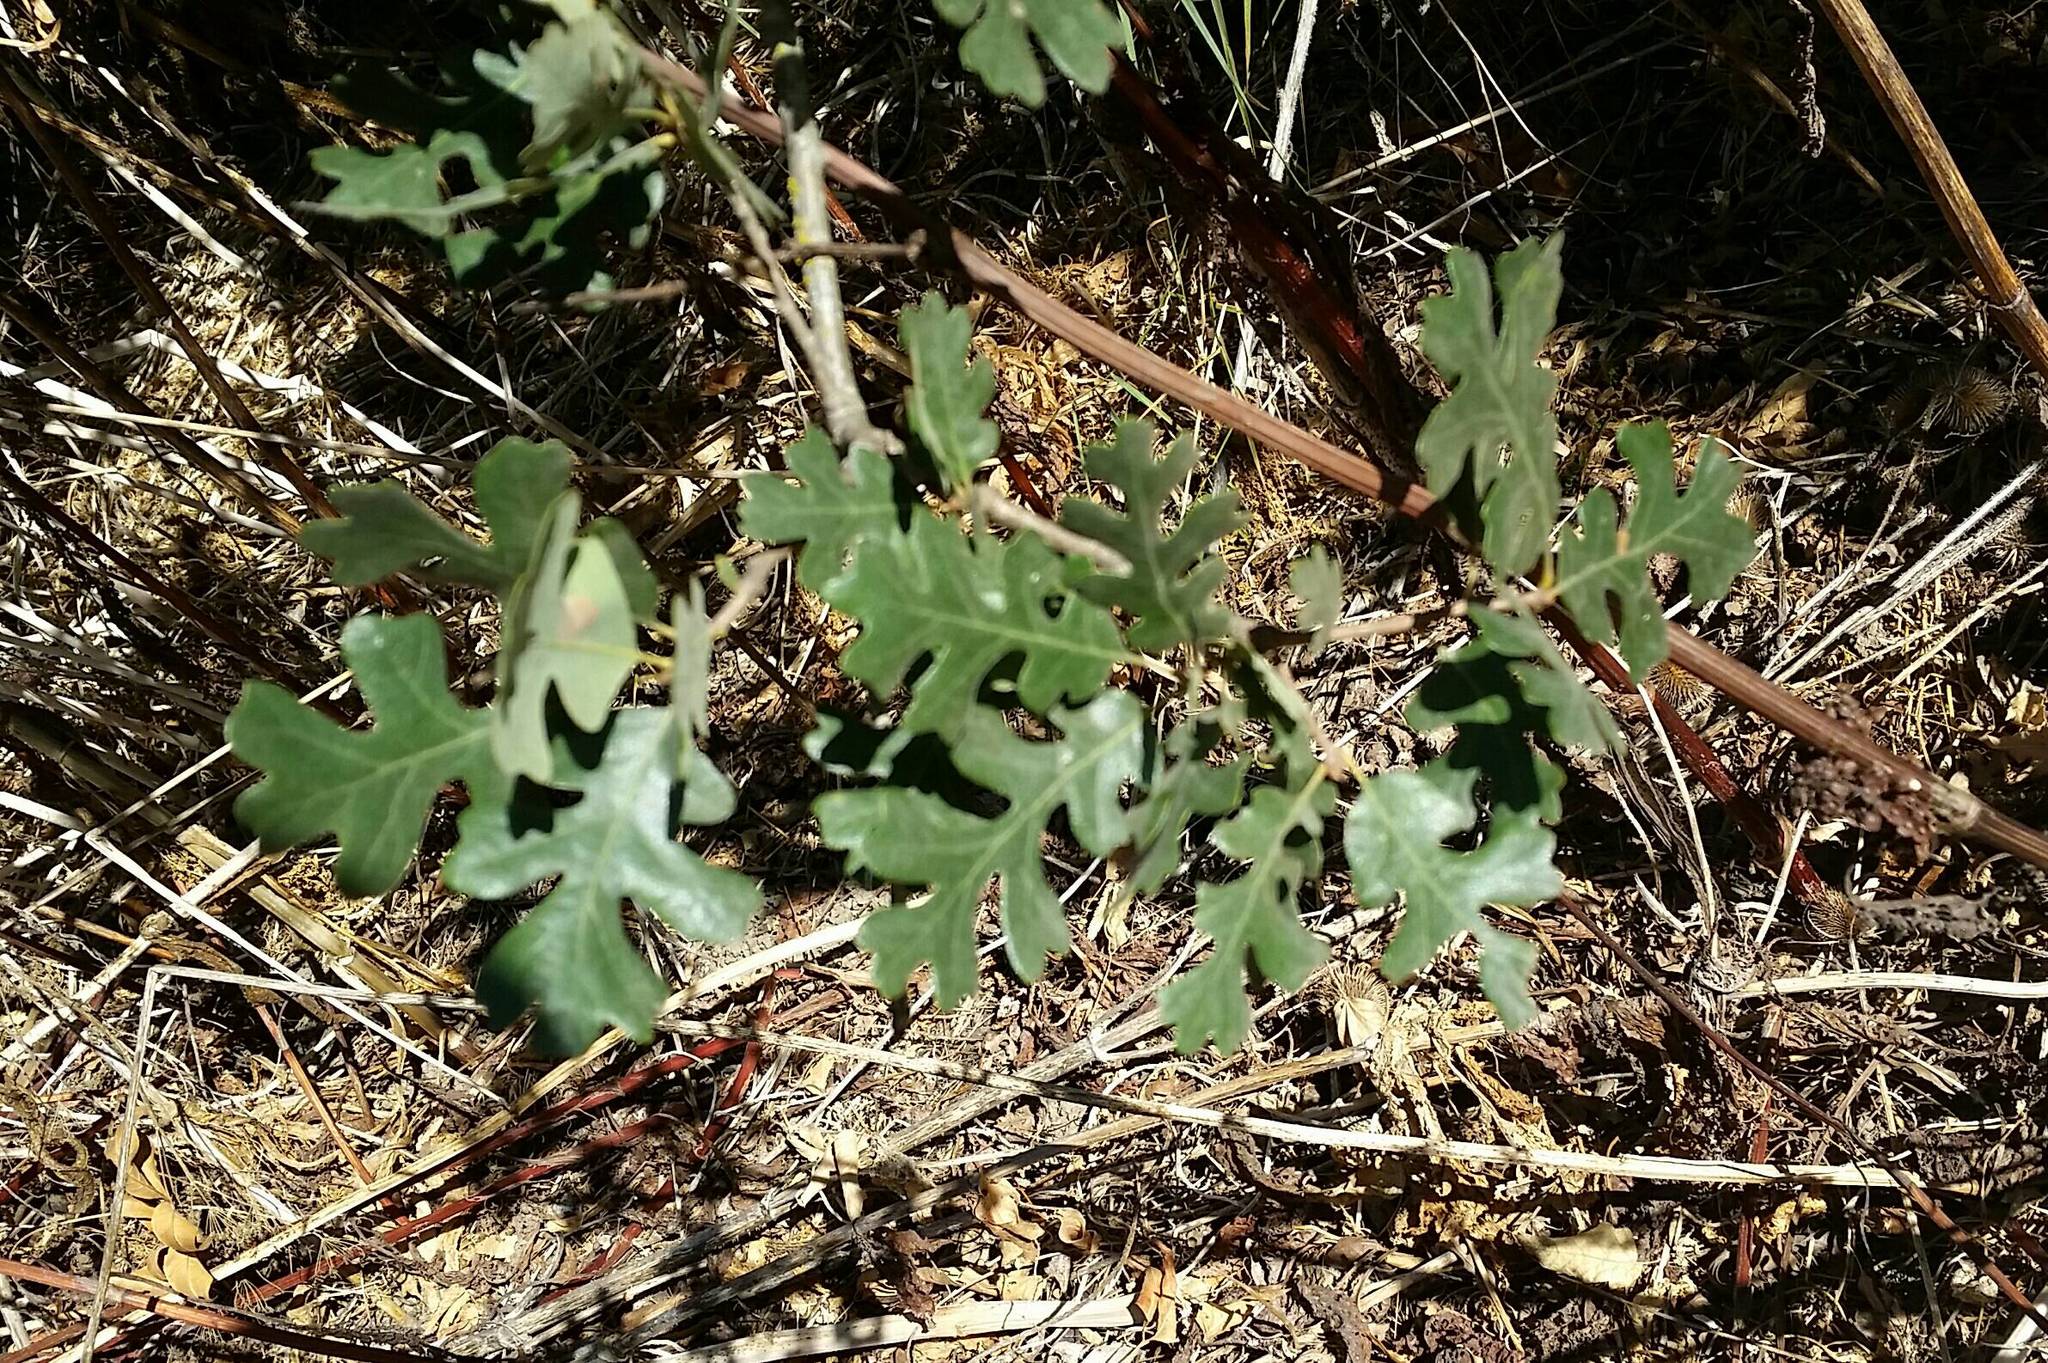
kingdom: Plantae
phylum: Tracheophyta
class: Magnoliopsida
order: Fagales
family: Fagaceae
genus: Quercus
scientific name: Quercus lobata
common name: Valley oak
